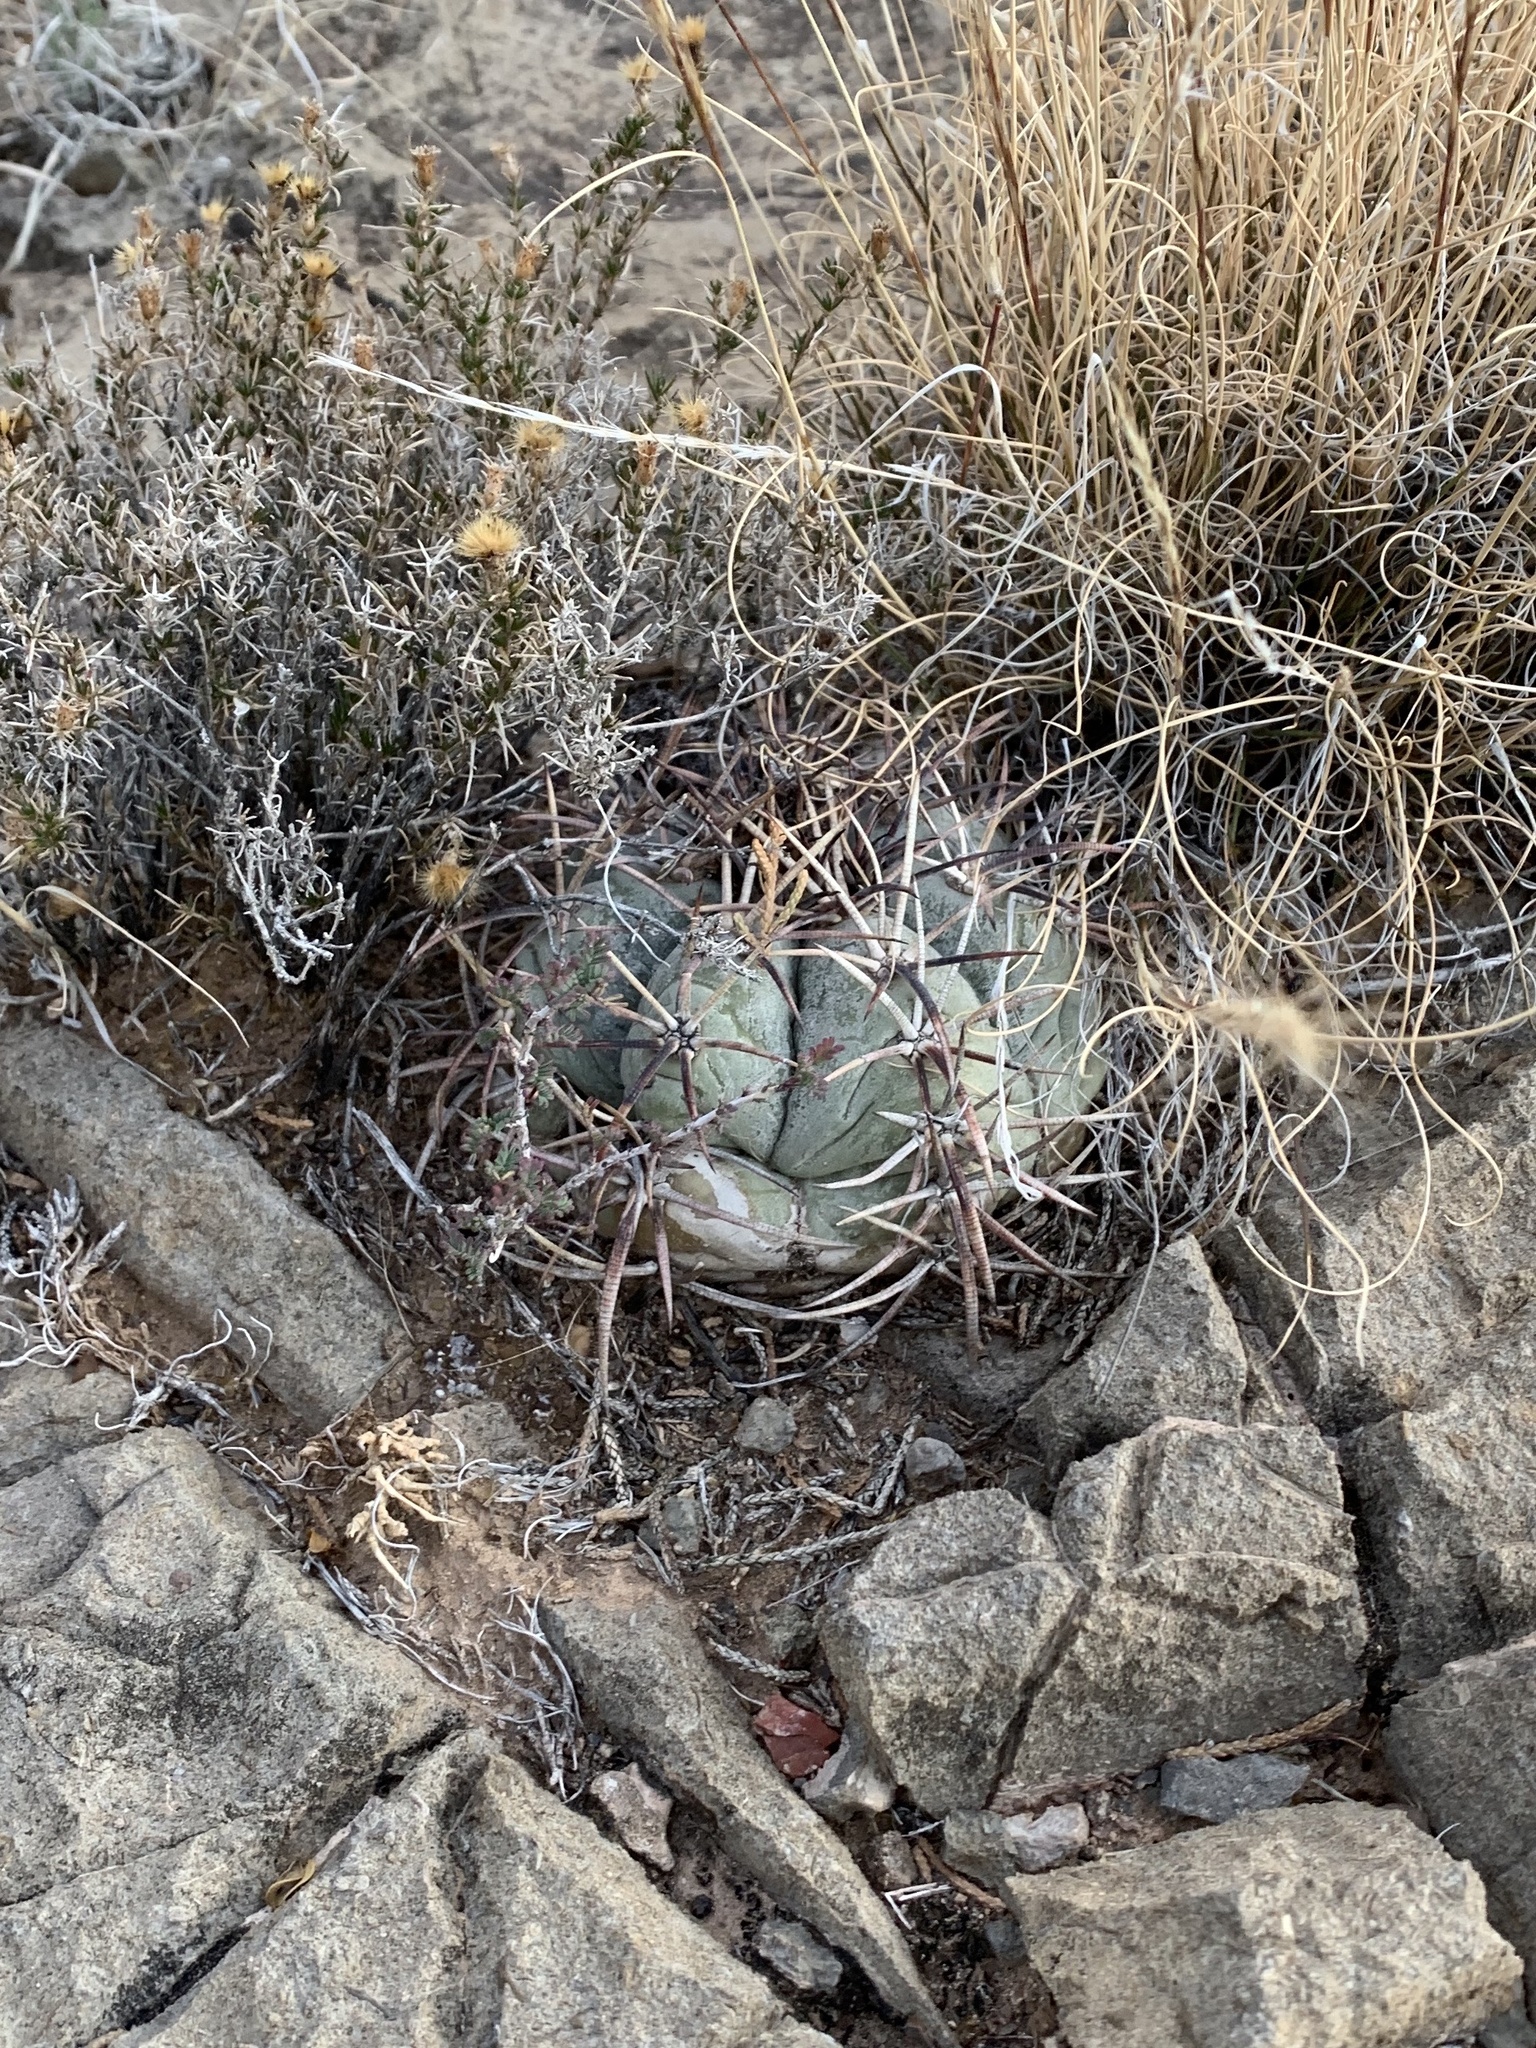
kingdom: Plantae
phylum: Tracheophyta
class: Magnoliopsida
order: Caryophyllales
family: Cactaceae
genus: Echinocactus
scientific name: Echinocactus horizonthalonius
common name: Devilshead
